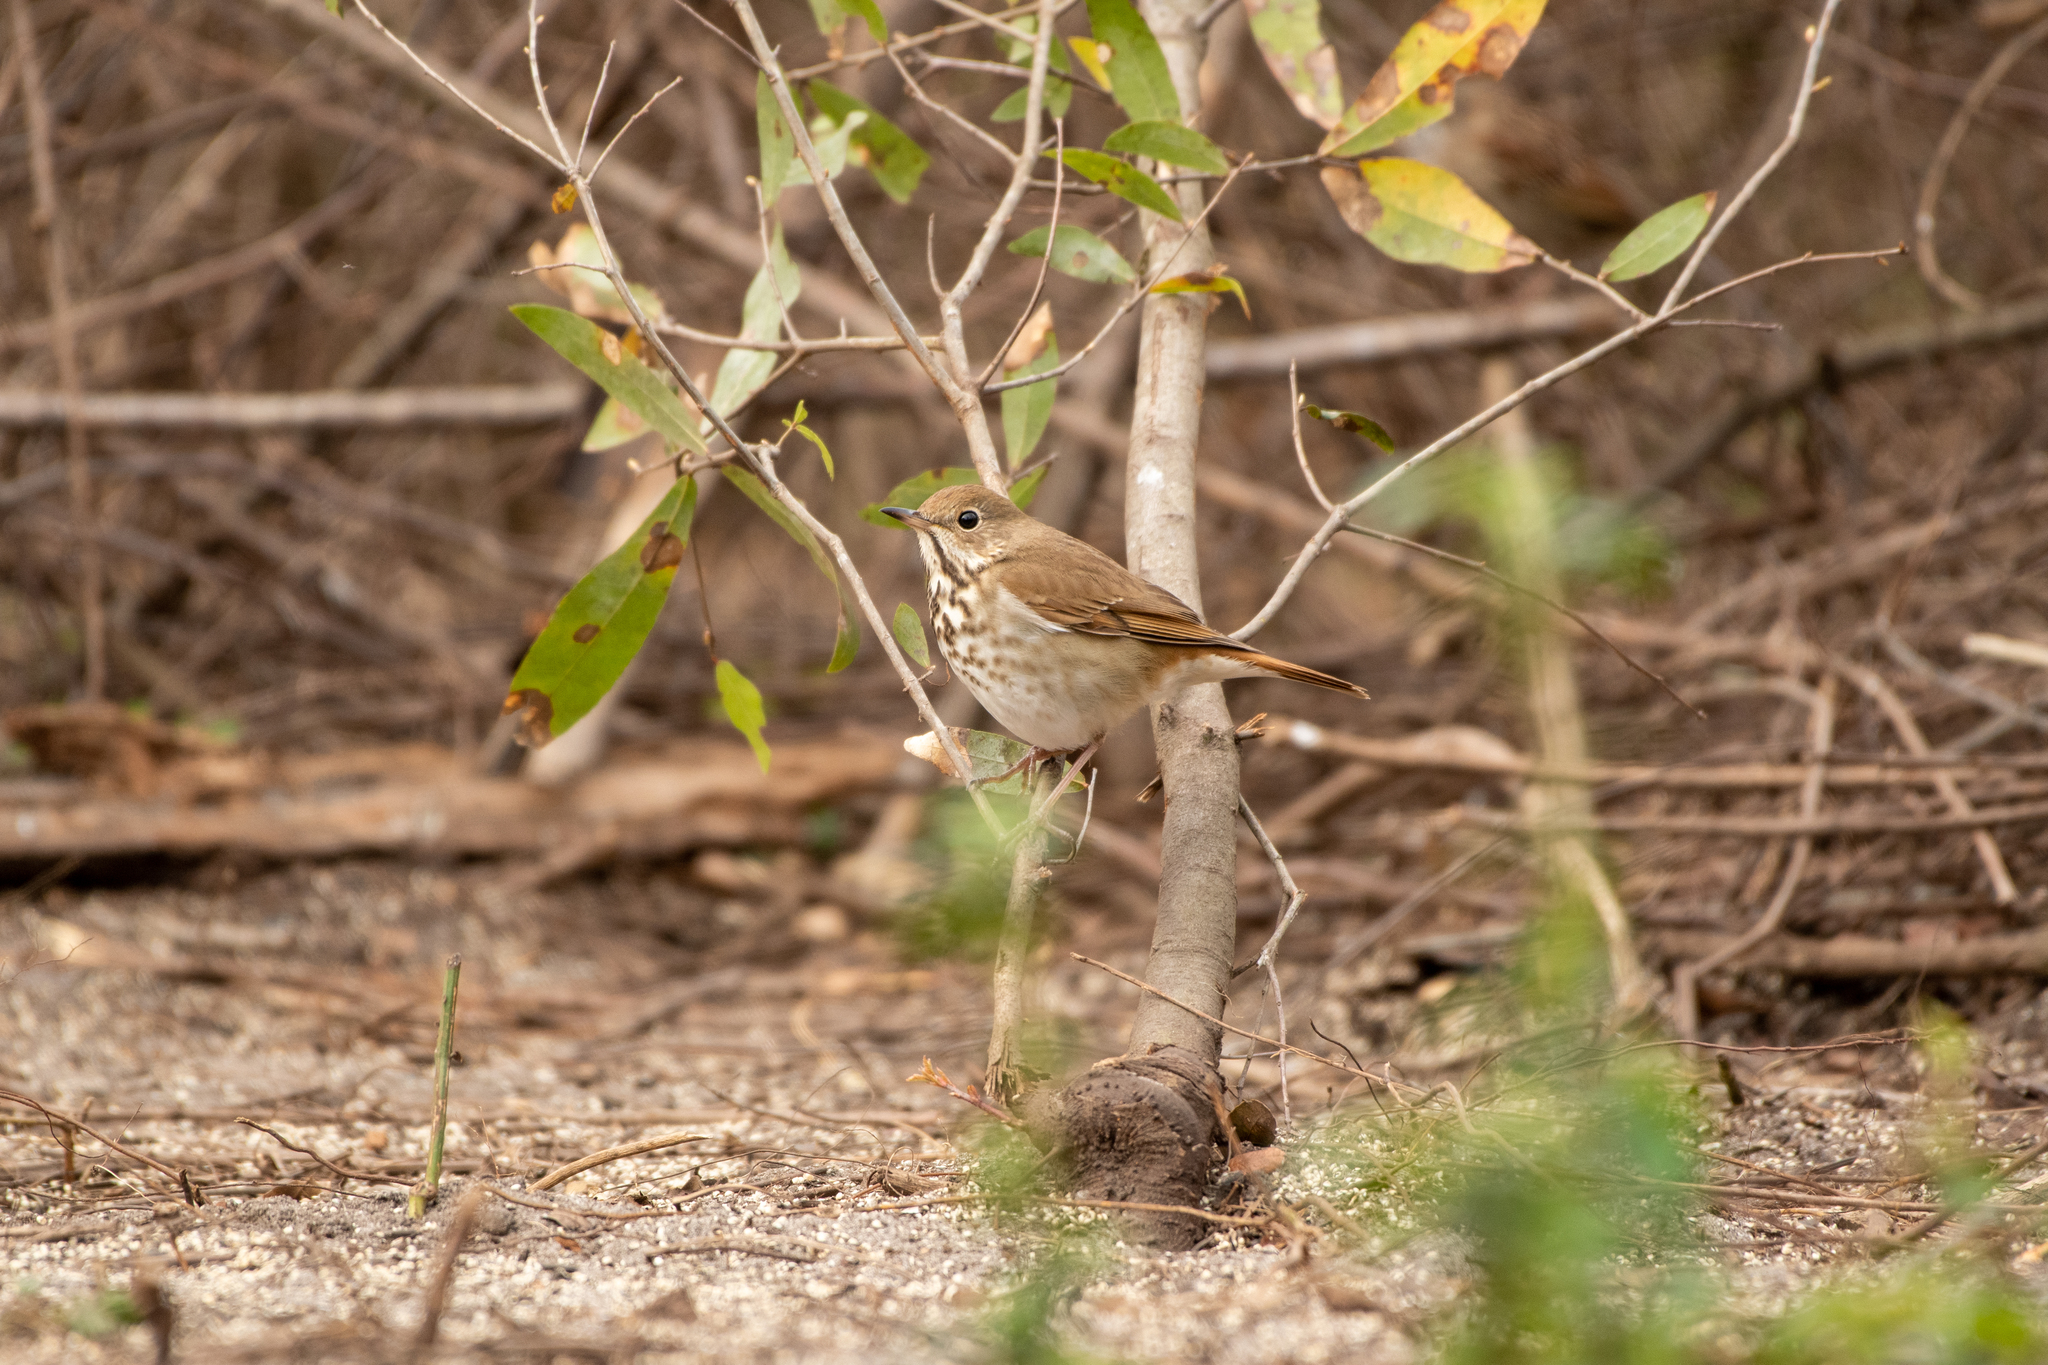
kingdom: Animalia
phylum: Chordata
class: Aves
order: Passeriformes
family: Turdidae
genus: Catharus
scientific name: Catharus guttatus
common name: Hermit thrush
